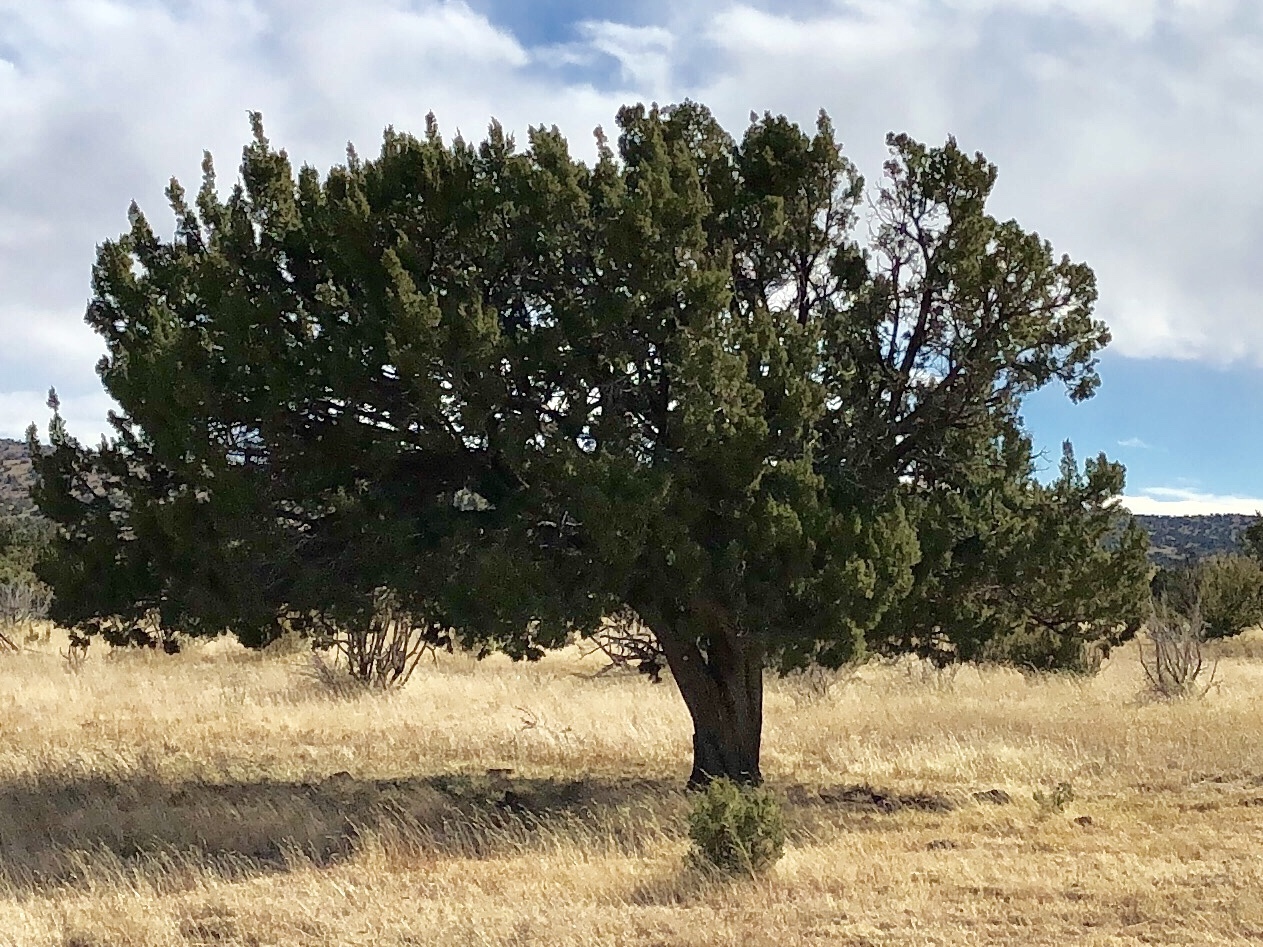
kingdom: Plantae
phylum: Tracheophyta
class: Pinopsida
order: Pinales
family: Cupressaceae
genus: Juniperus
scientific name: Juniperus deppeana
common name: Alligator juniper
